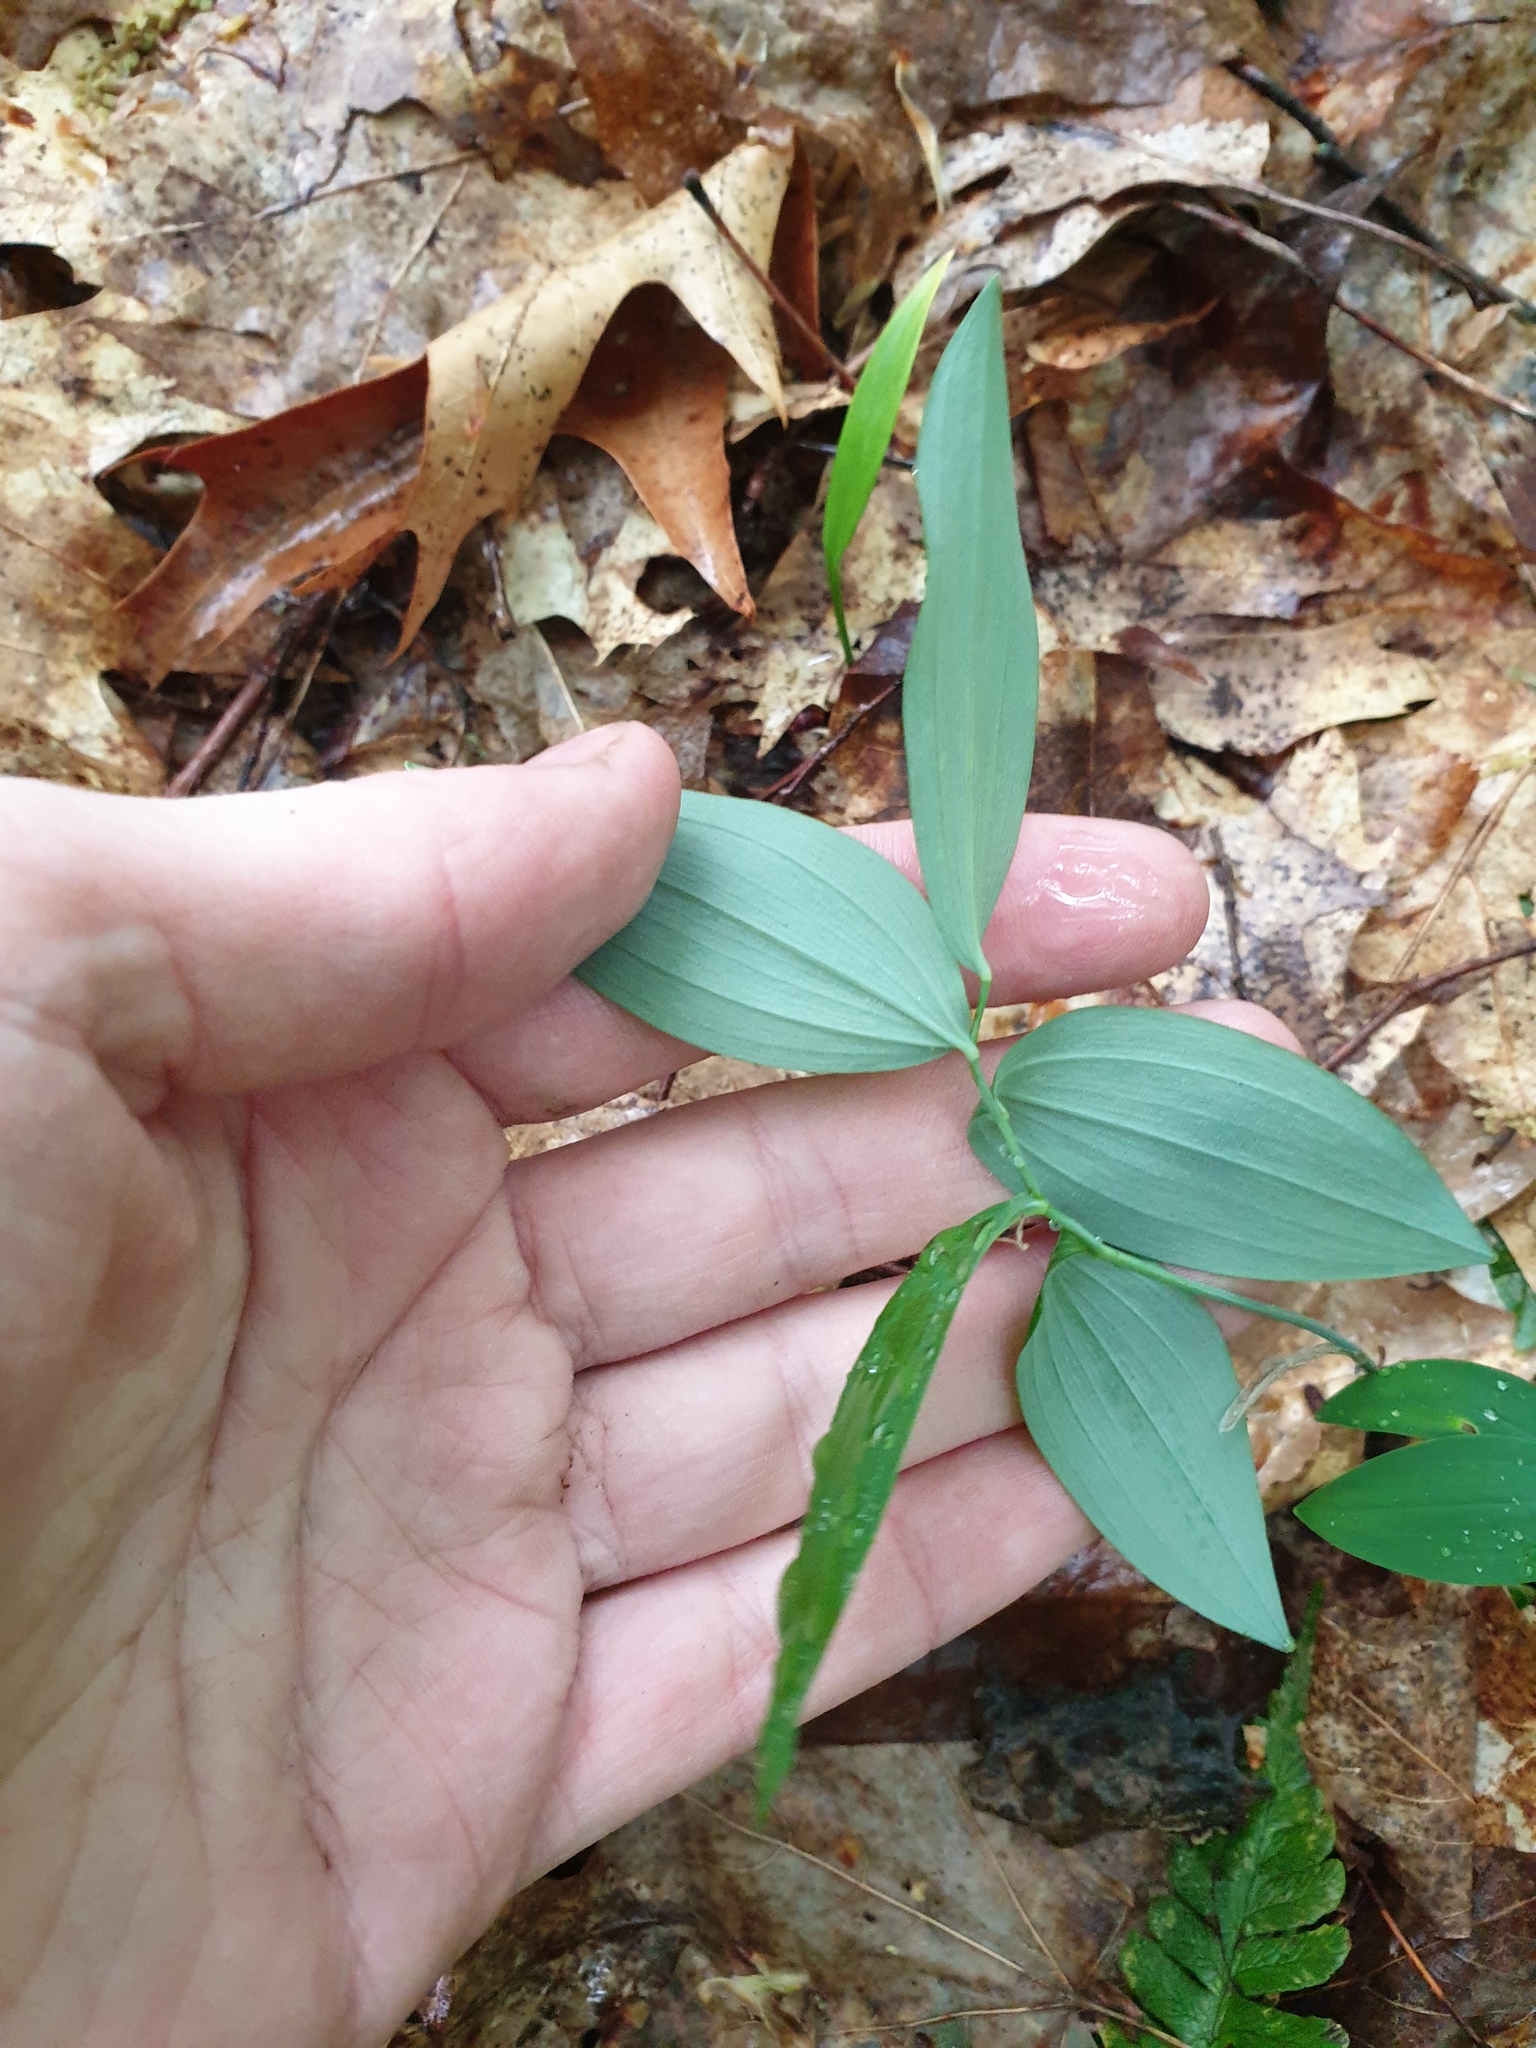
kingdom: Plantae
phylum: Tracheophyta
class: Liliopsida
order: Asparagales
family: Asparagaceae
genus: Polygonatum
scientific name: Polygonatum pubescens
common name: Downy solomon's seal
